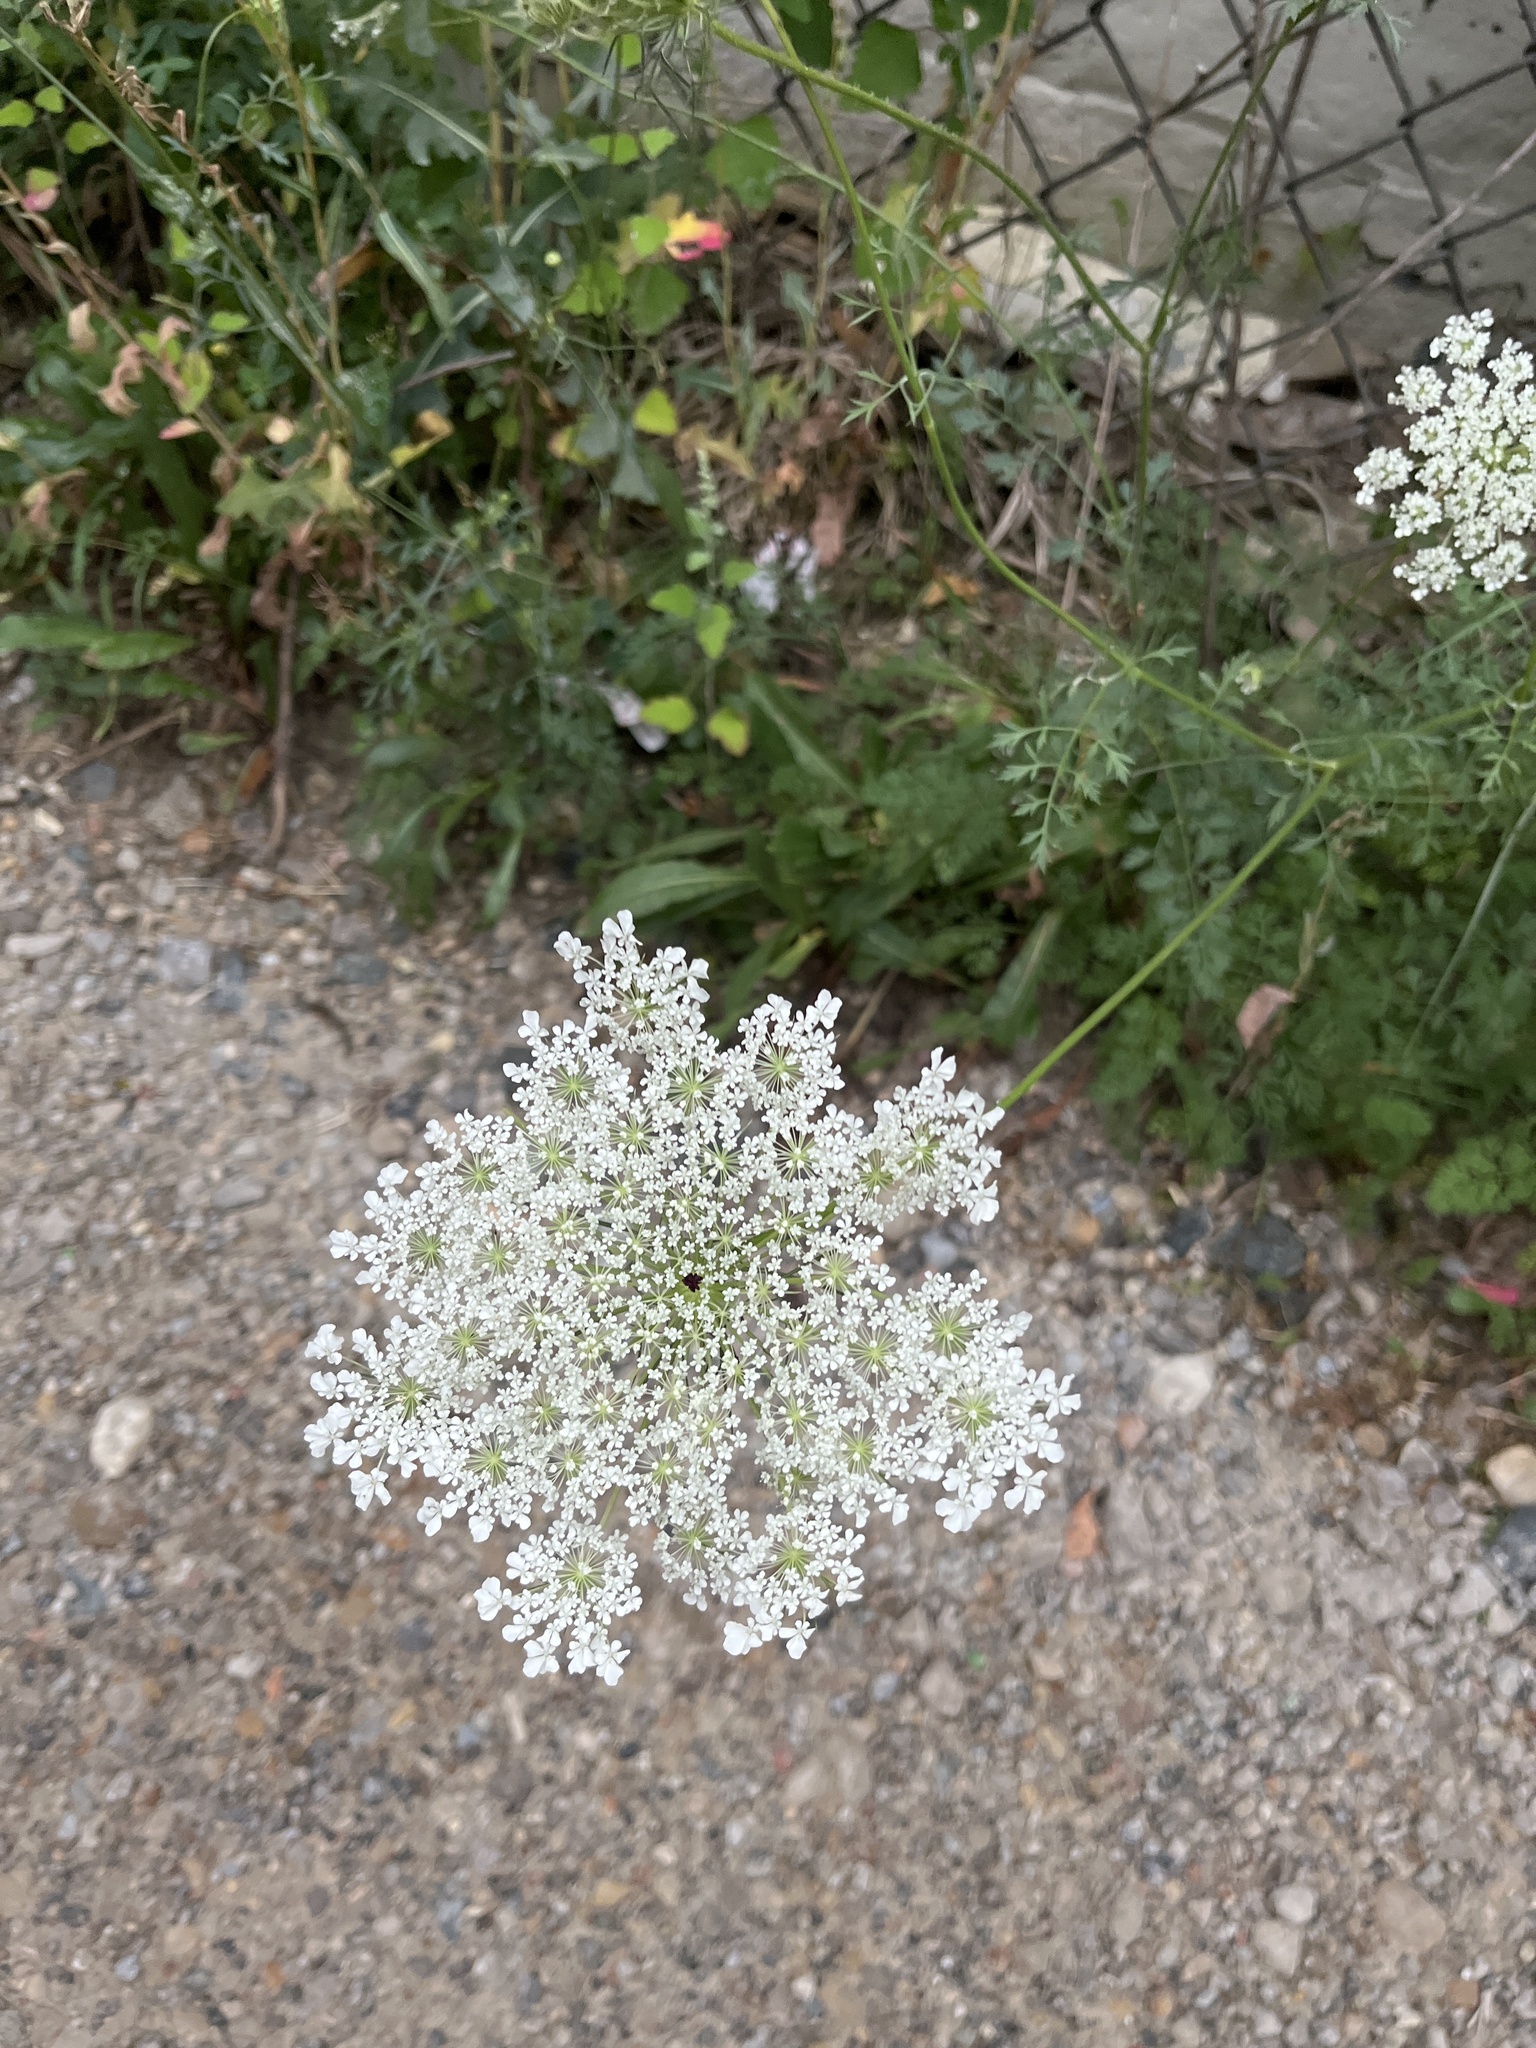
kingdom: Plantae
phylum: Tracheophyta
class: Magnoliopsida
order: Apiales
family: Apiaceae
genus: Daucus
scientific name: Daucus carota
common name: Wild carrot
